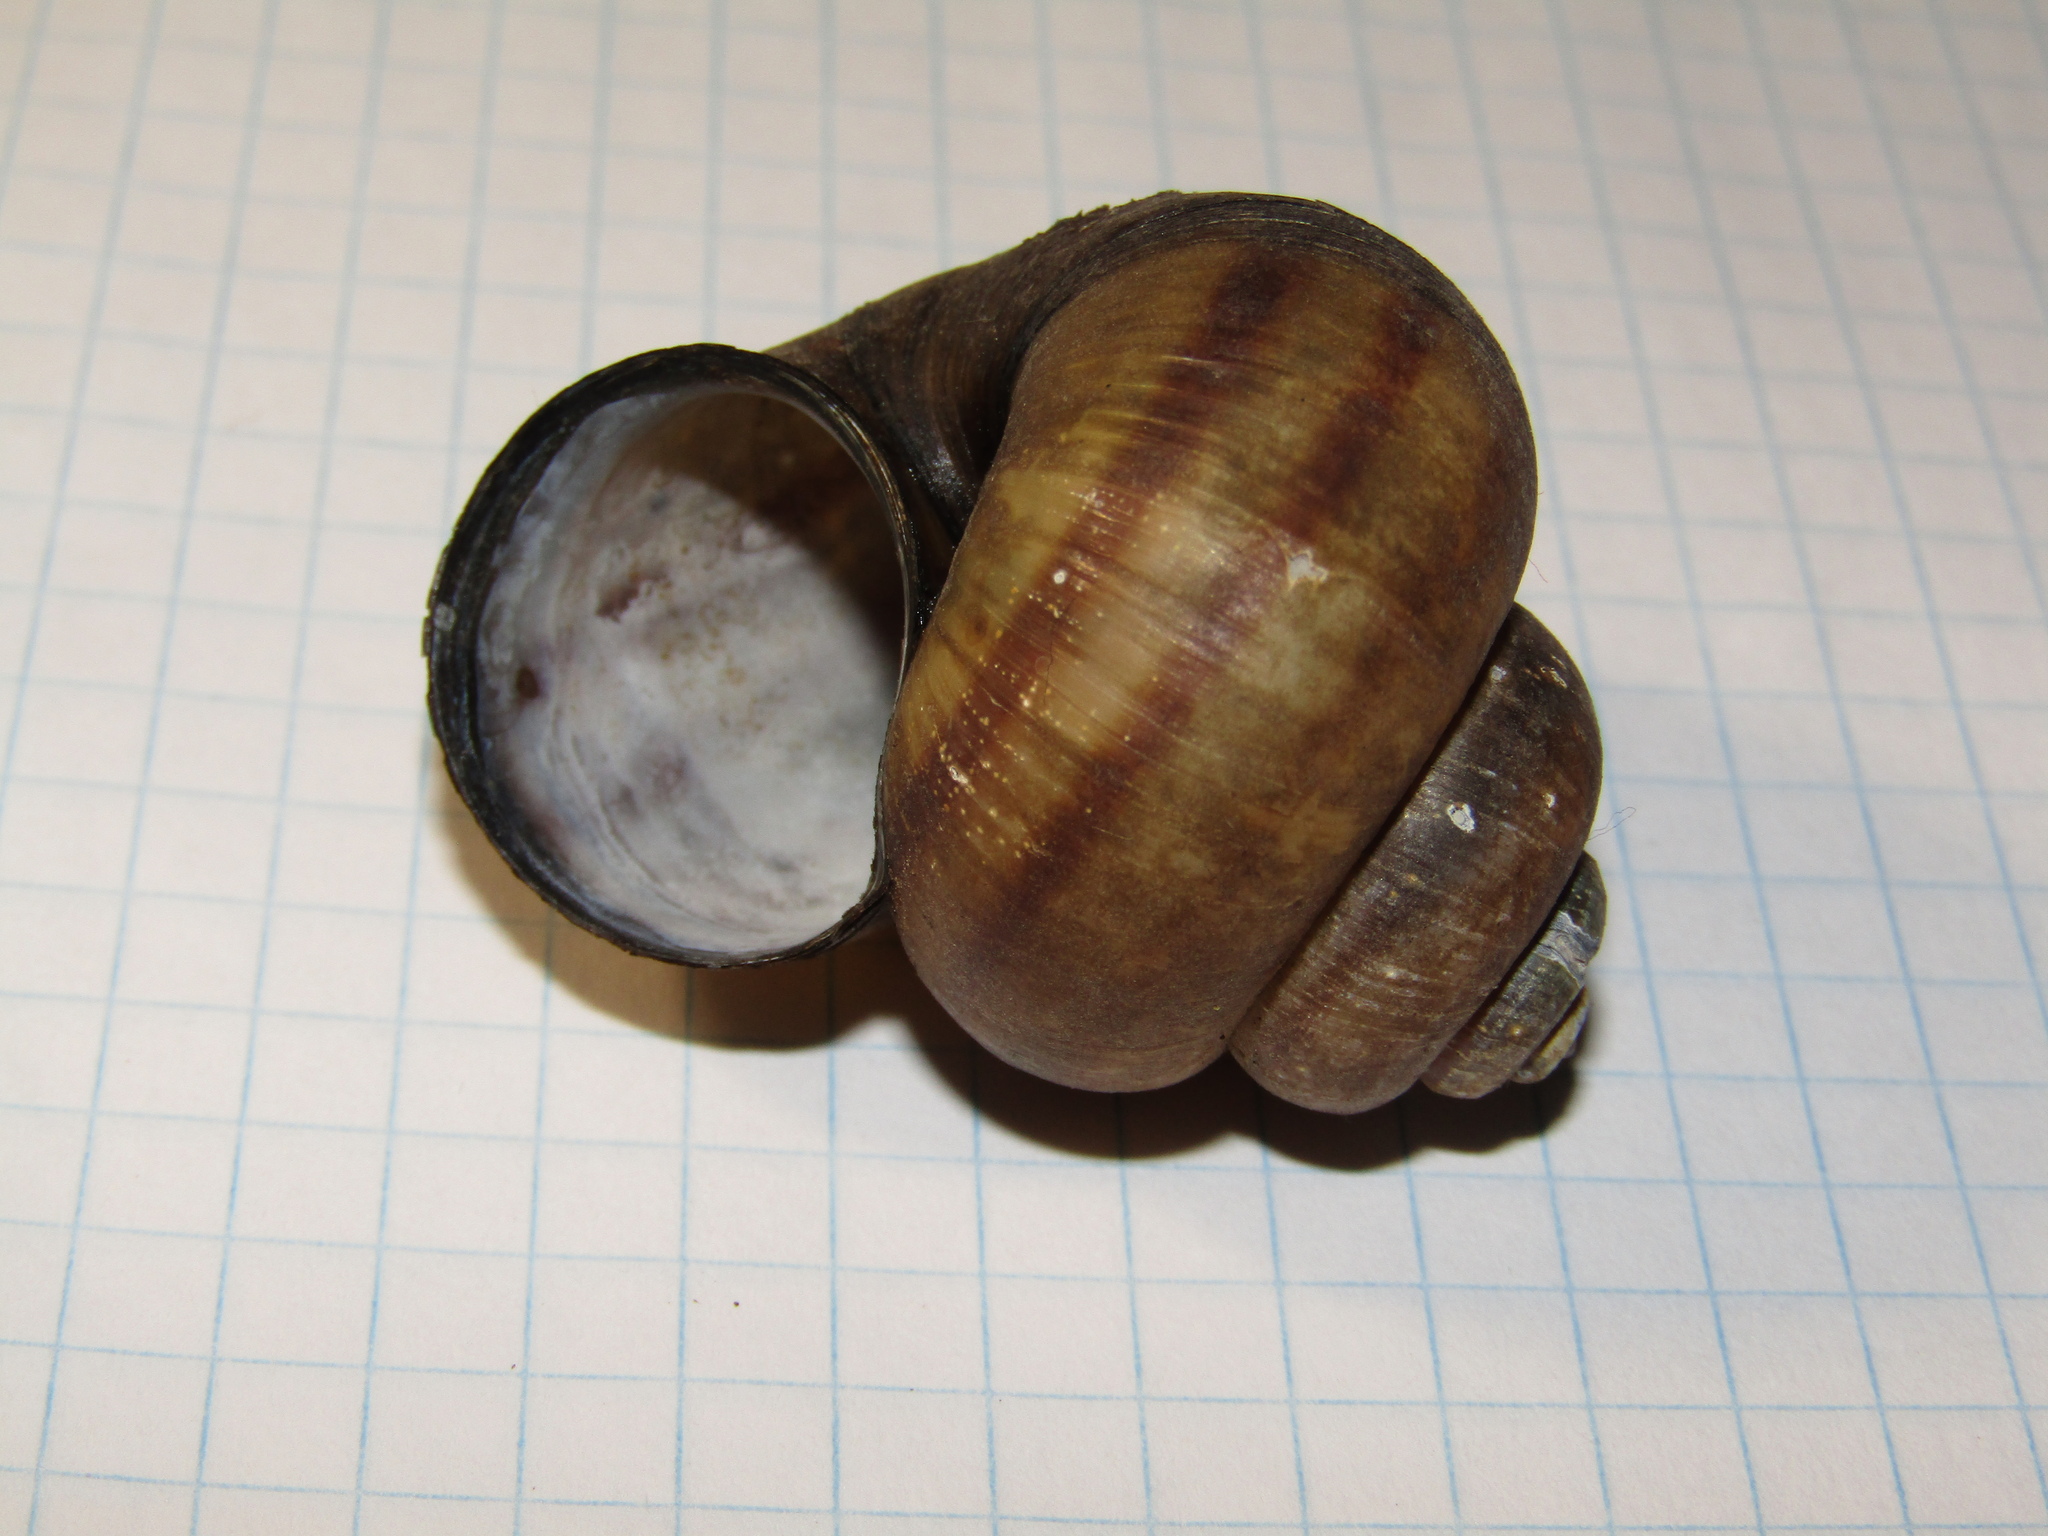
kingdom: Animalia
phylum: Mollusca
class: Gastropoda
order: Architaenioglossa
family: Viviparidae
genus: Viviparus
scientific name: Viviparus contectus
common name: Lister's river snail
